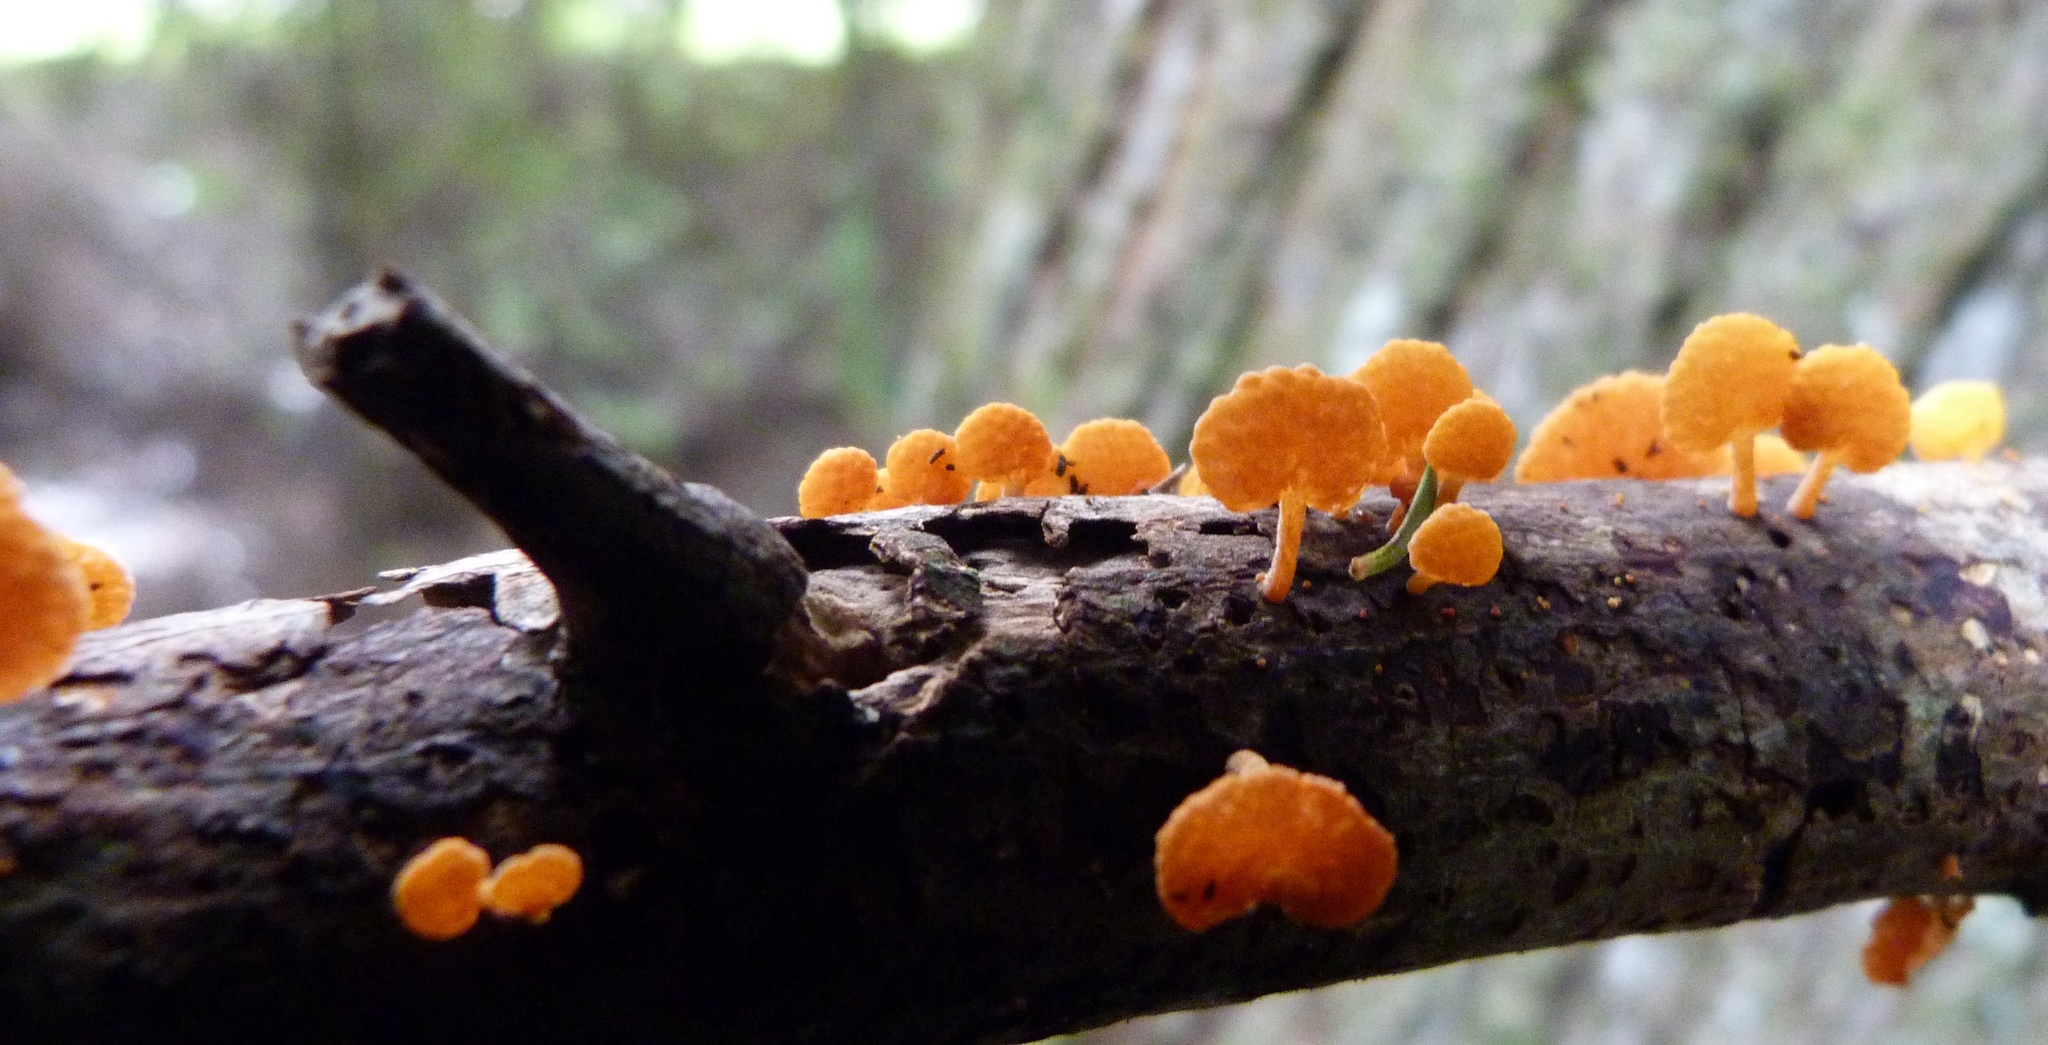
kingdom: Fungi
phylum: Basidiomycota
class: Agaricomycetes
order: Agaricales
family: Mycenaceae
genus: Favolaschia
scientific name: Favolaschia claudopus
